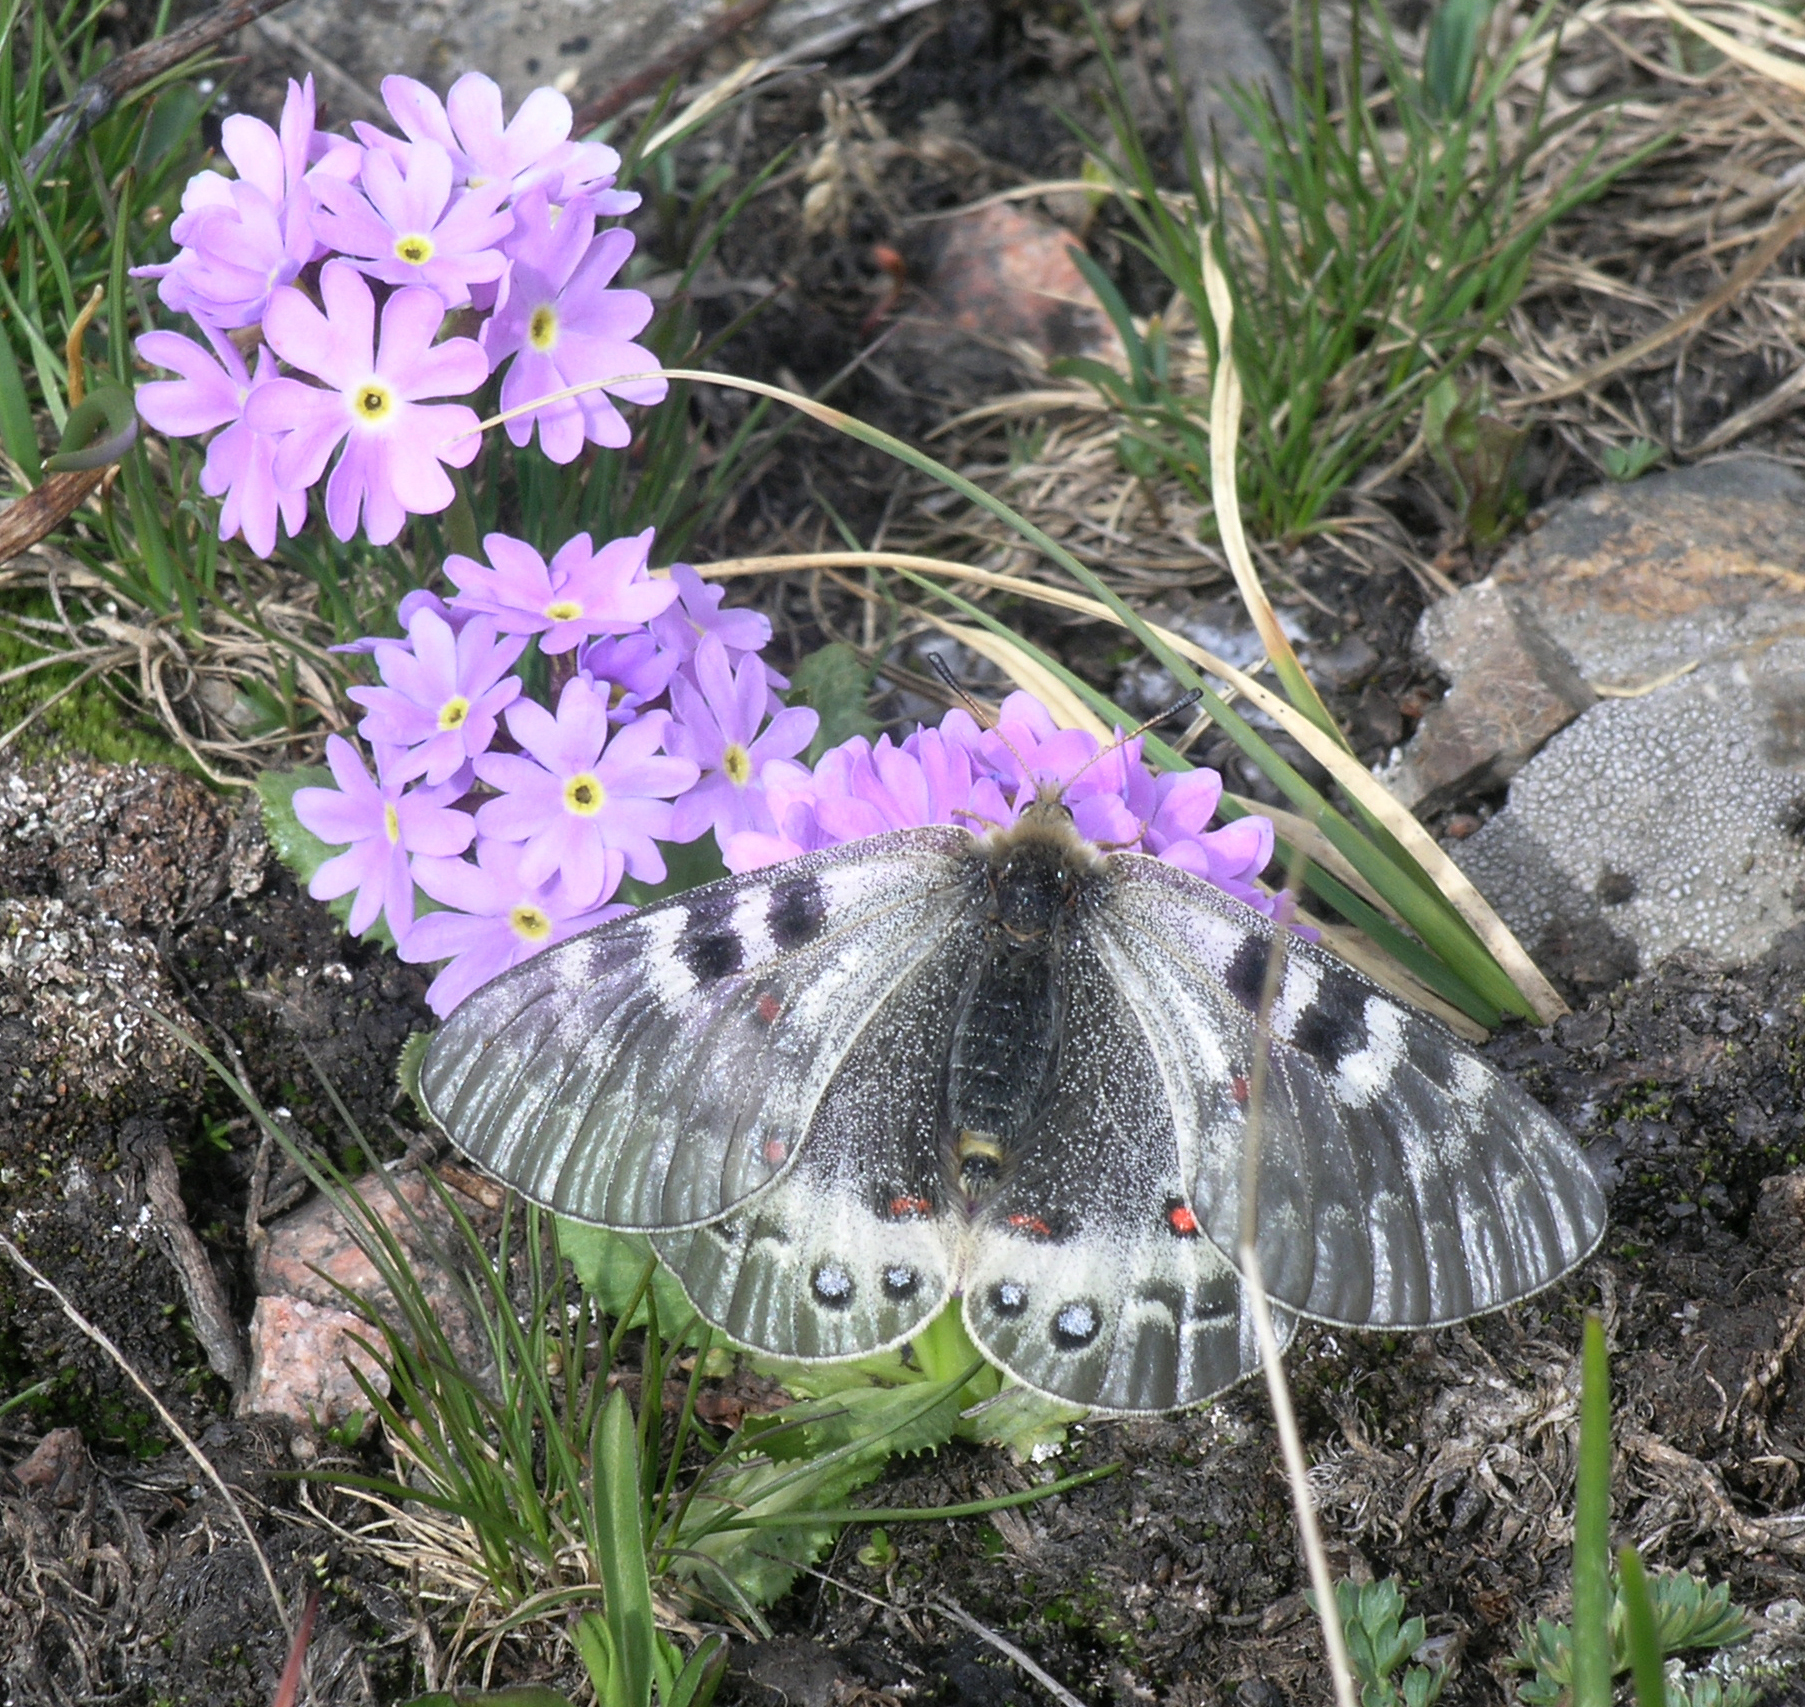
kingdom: Plantae
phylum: Tracheophyta
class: Magnoliopsida
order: Ericales
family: Primulaceae
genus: Primula
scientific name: Primula algida
